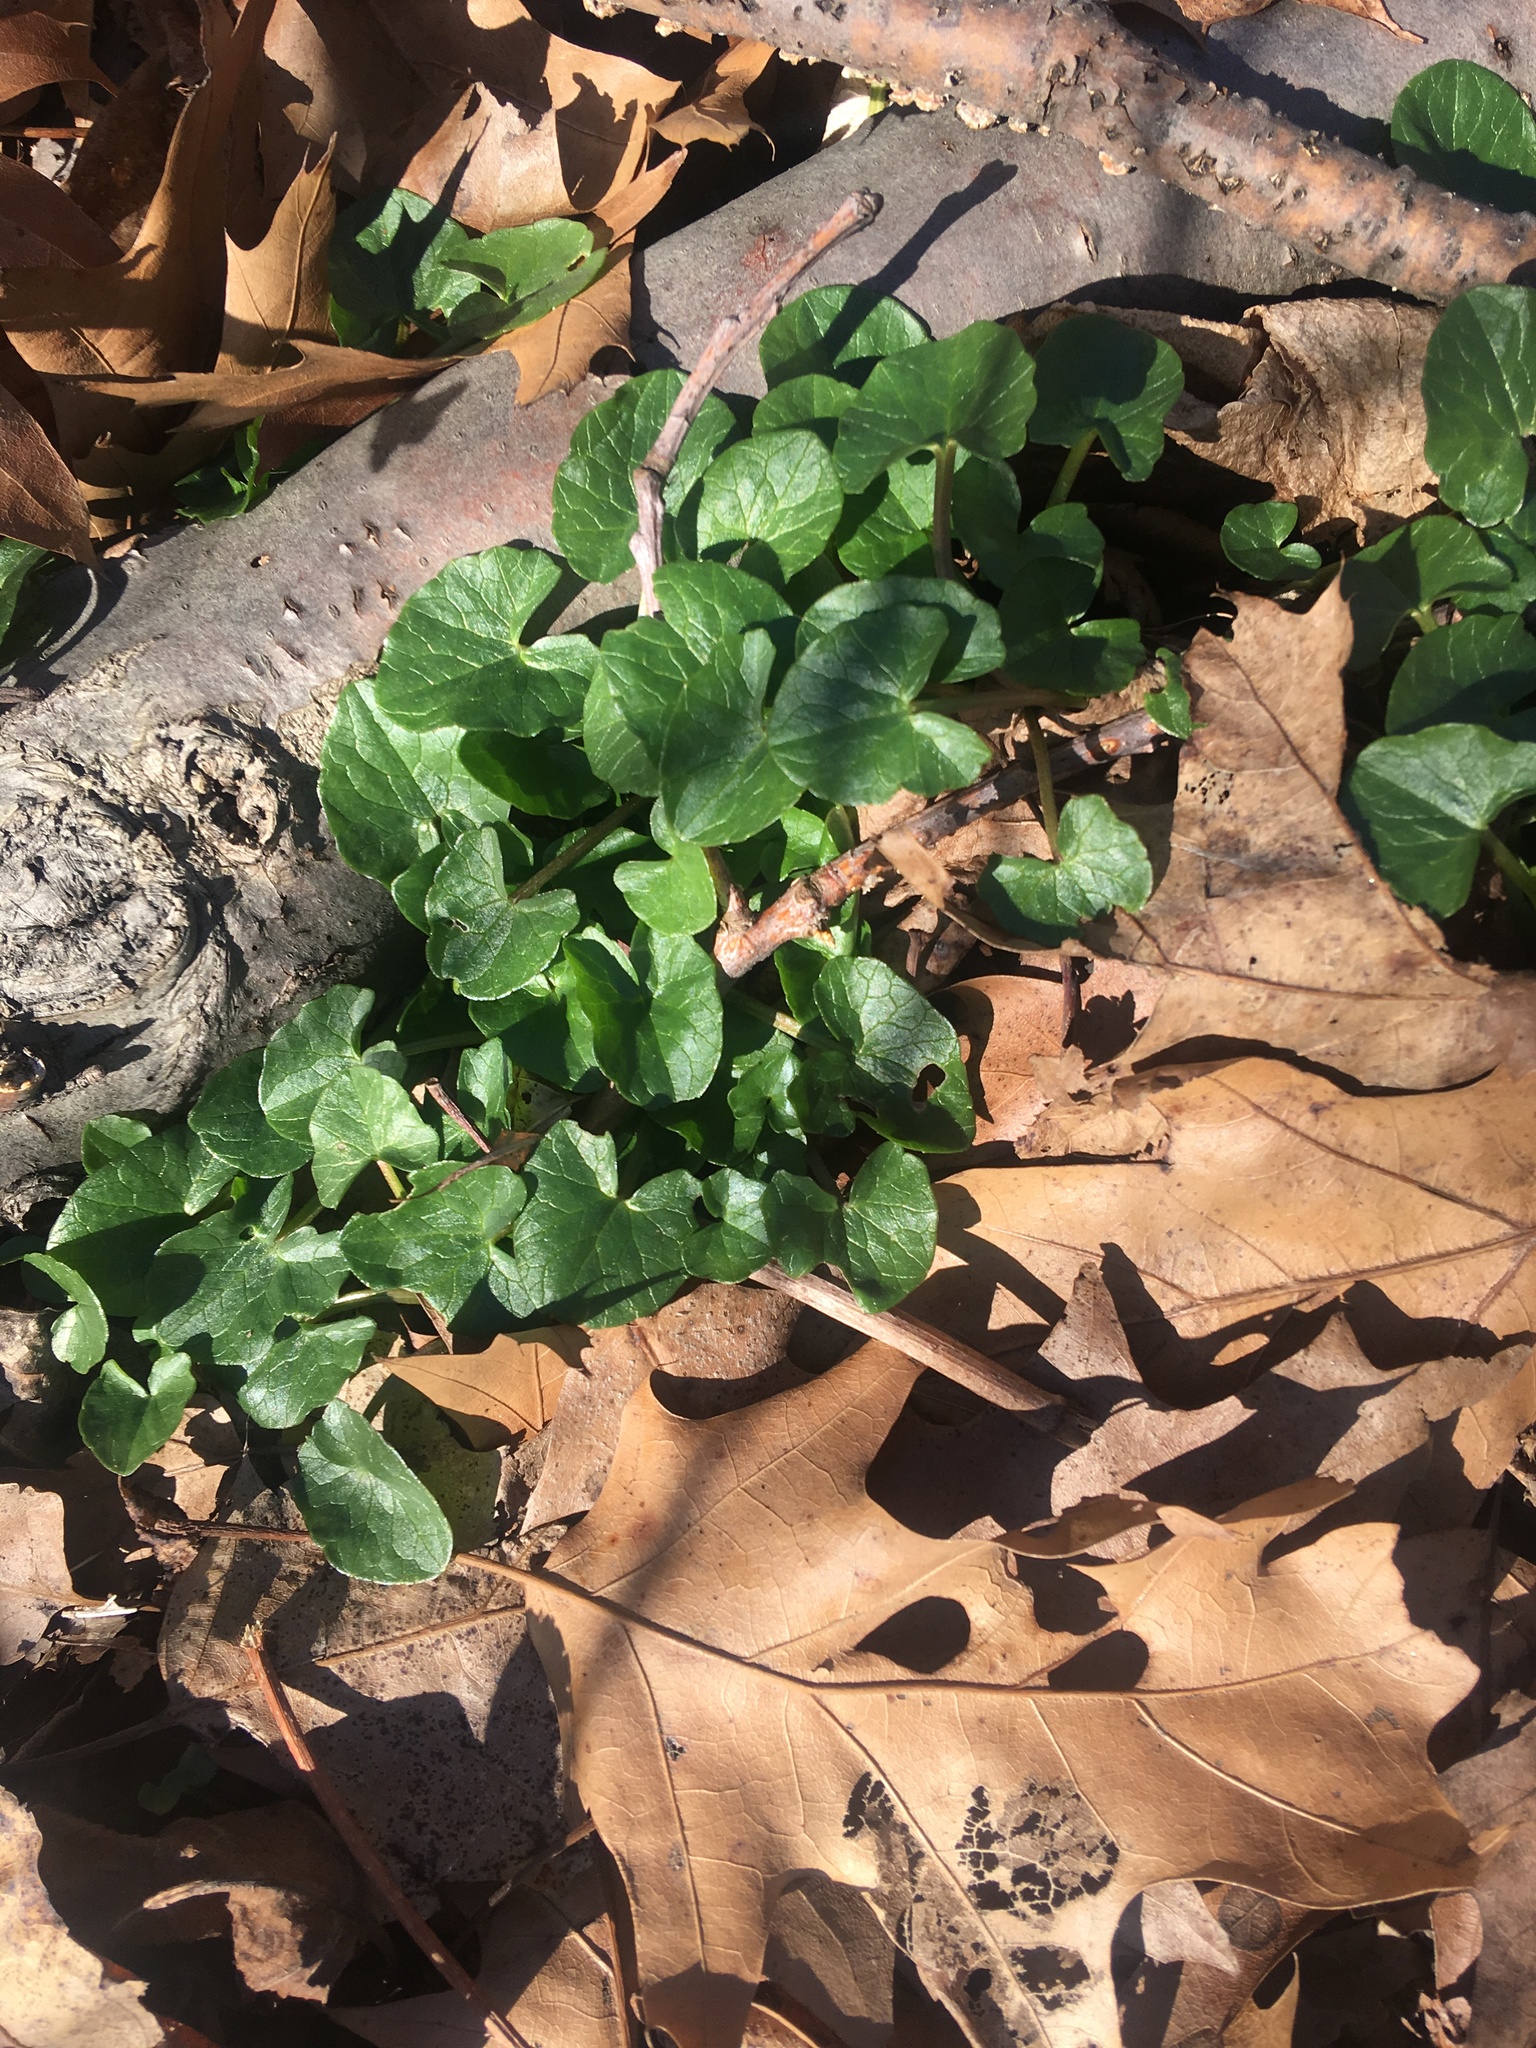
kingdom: Plantae
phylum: Tracheophyta
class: Magnoliopsida
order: Ranunculales
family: Ranunculaceae
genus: Ficaria
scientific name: Ficaria verna
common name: Lesser celandine
